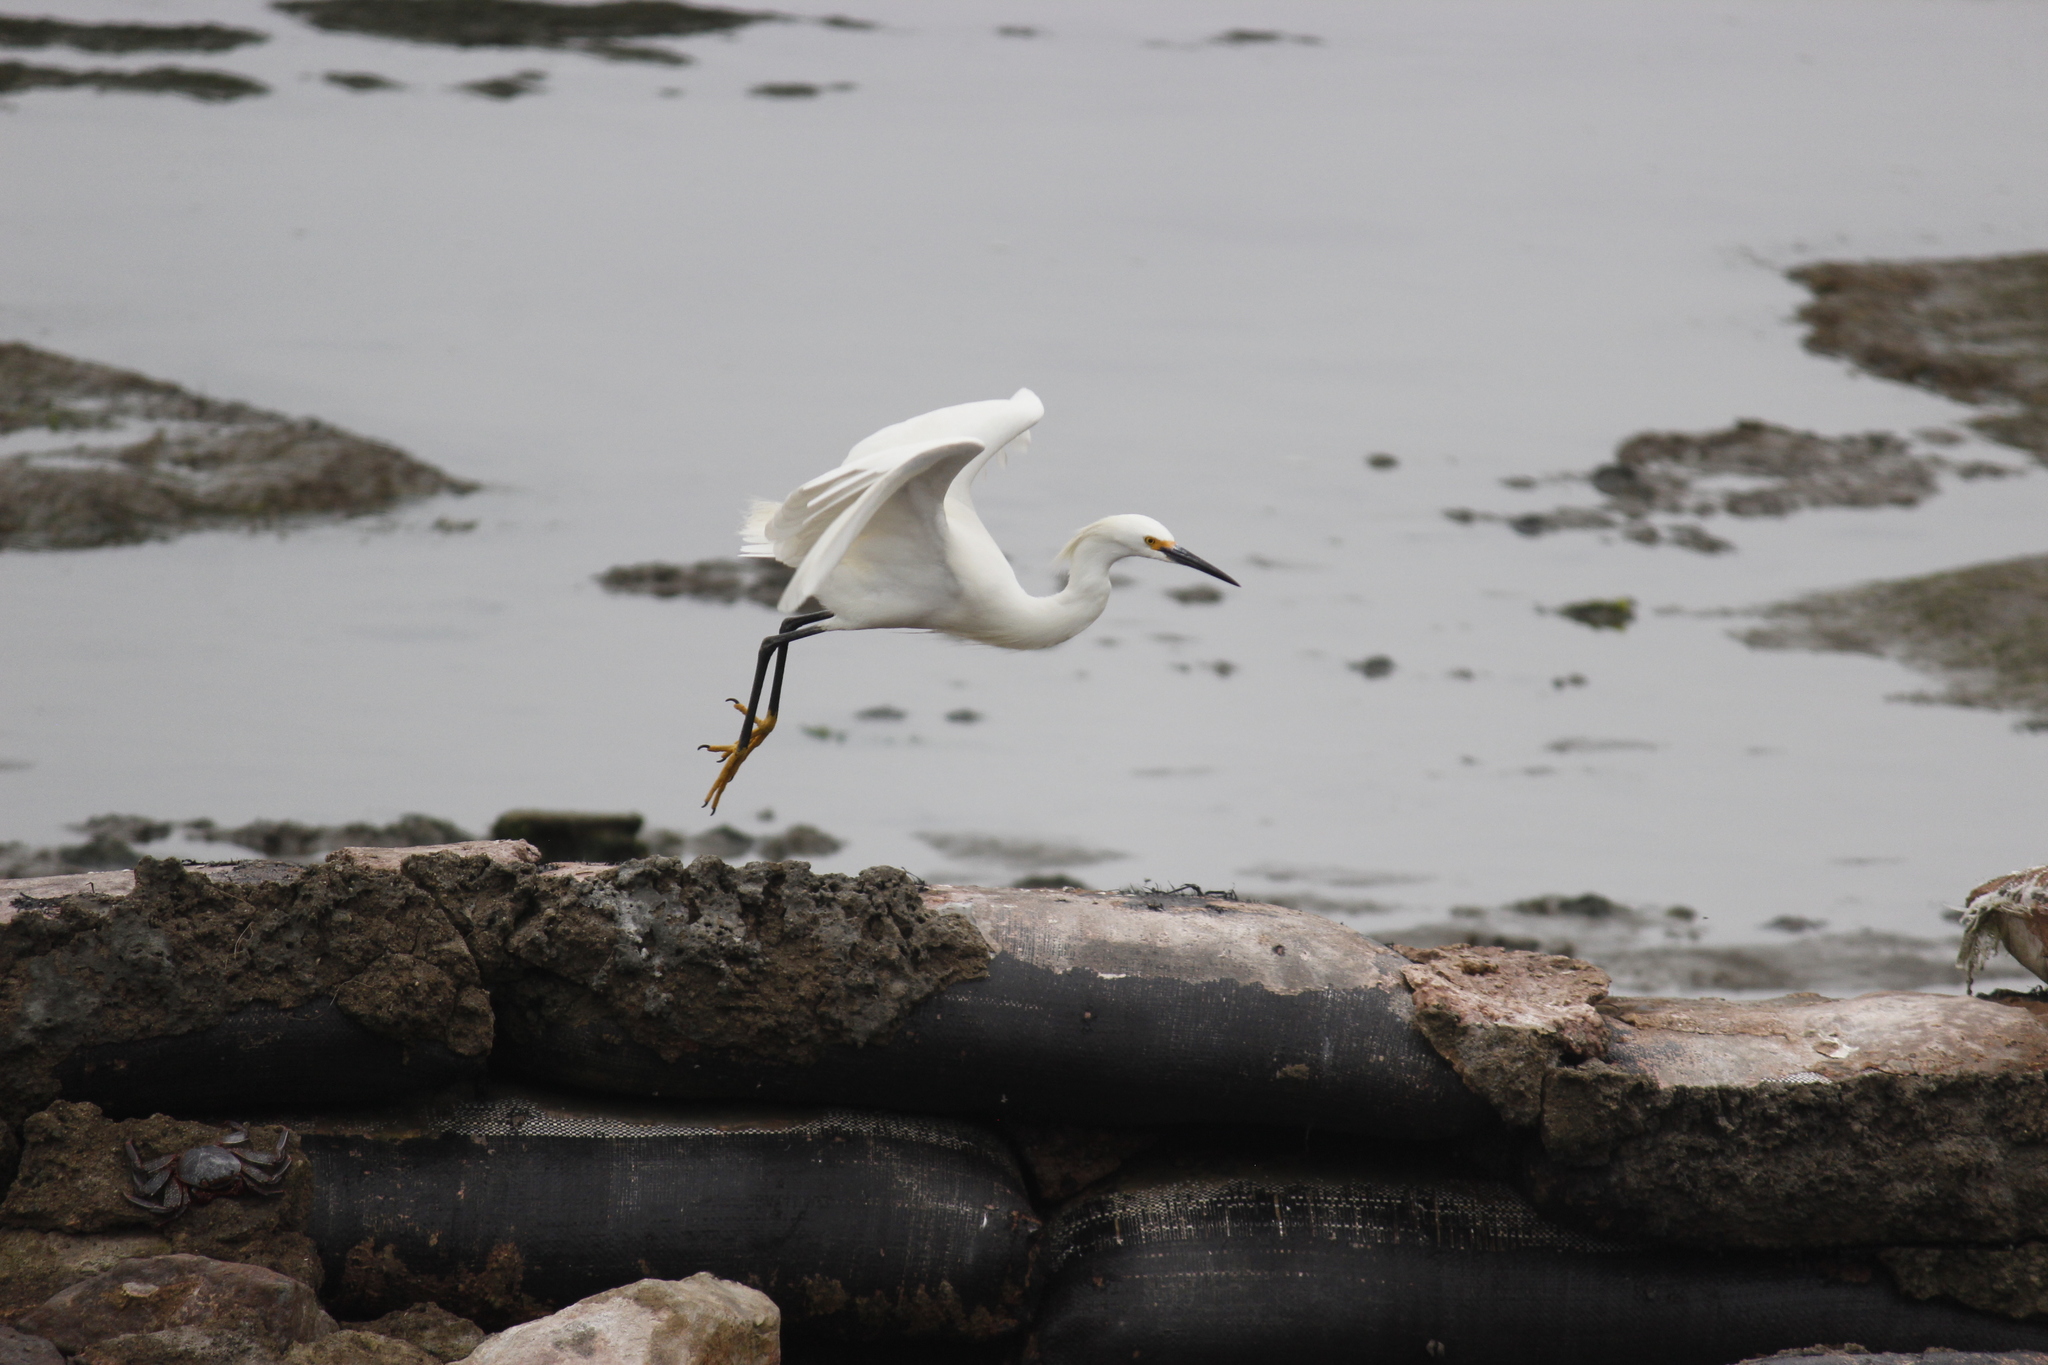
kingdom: Animalia
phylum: Chordata
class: Aves
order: Pelecaniformes
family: Ardeidae
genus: Egretta
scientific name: Egretta thula
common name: Snowy egret
